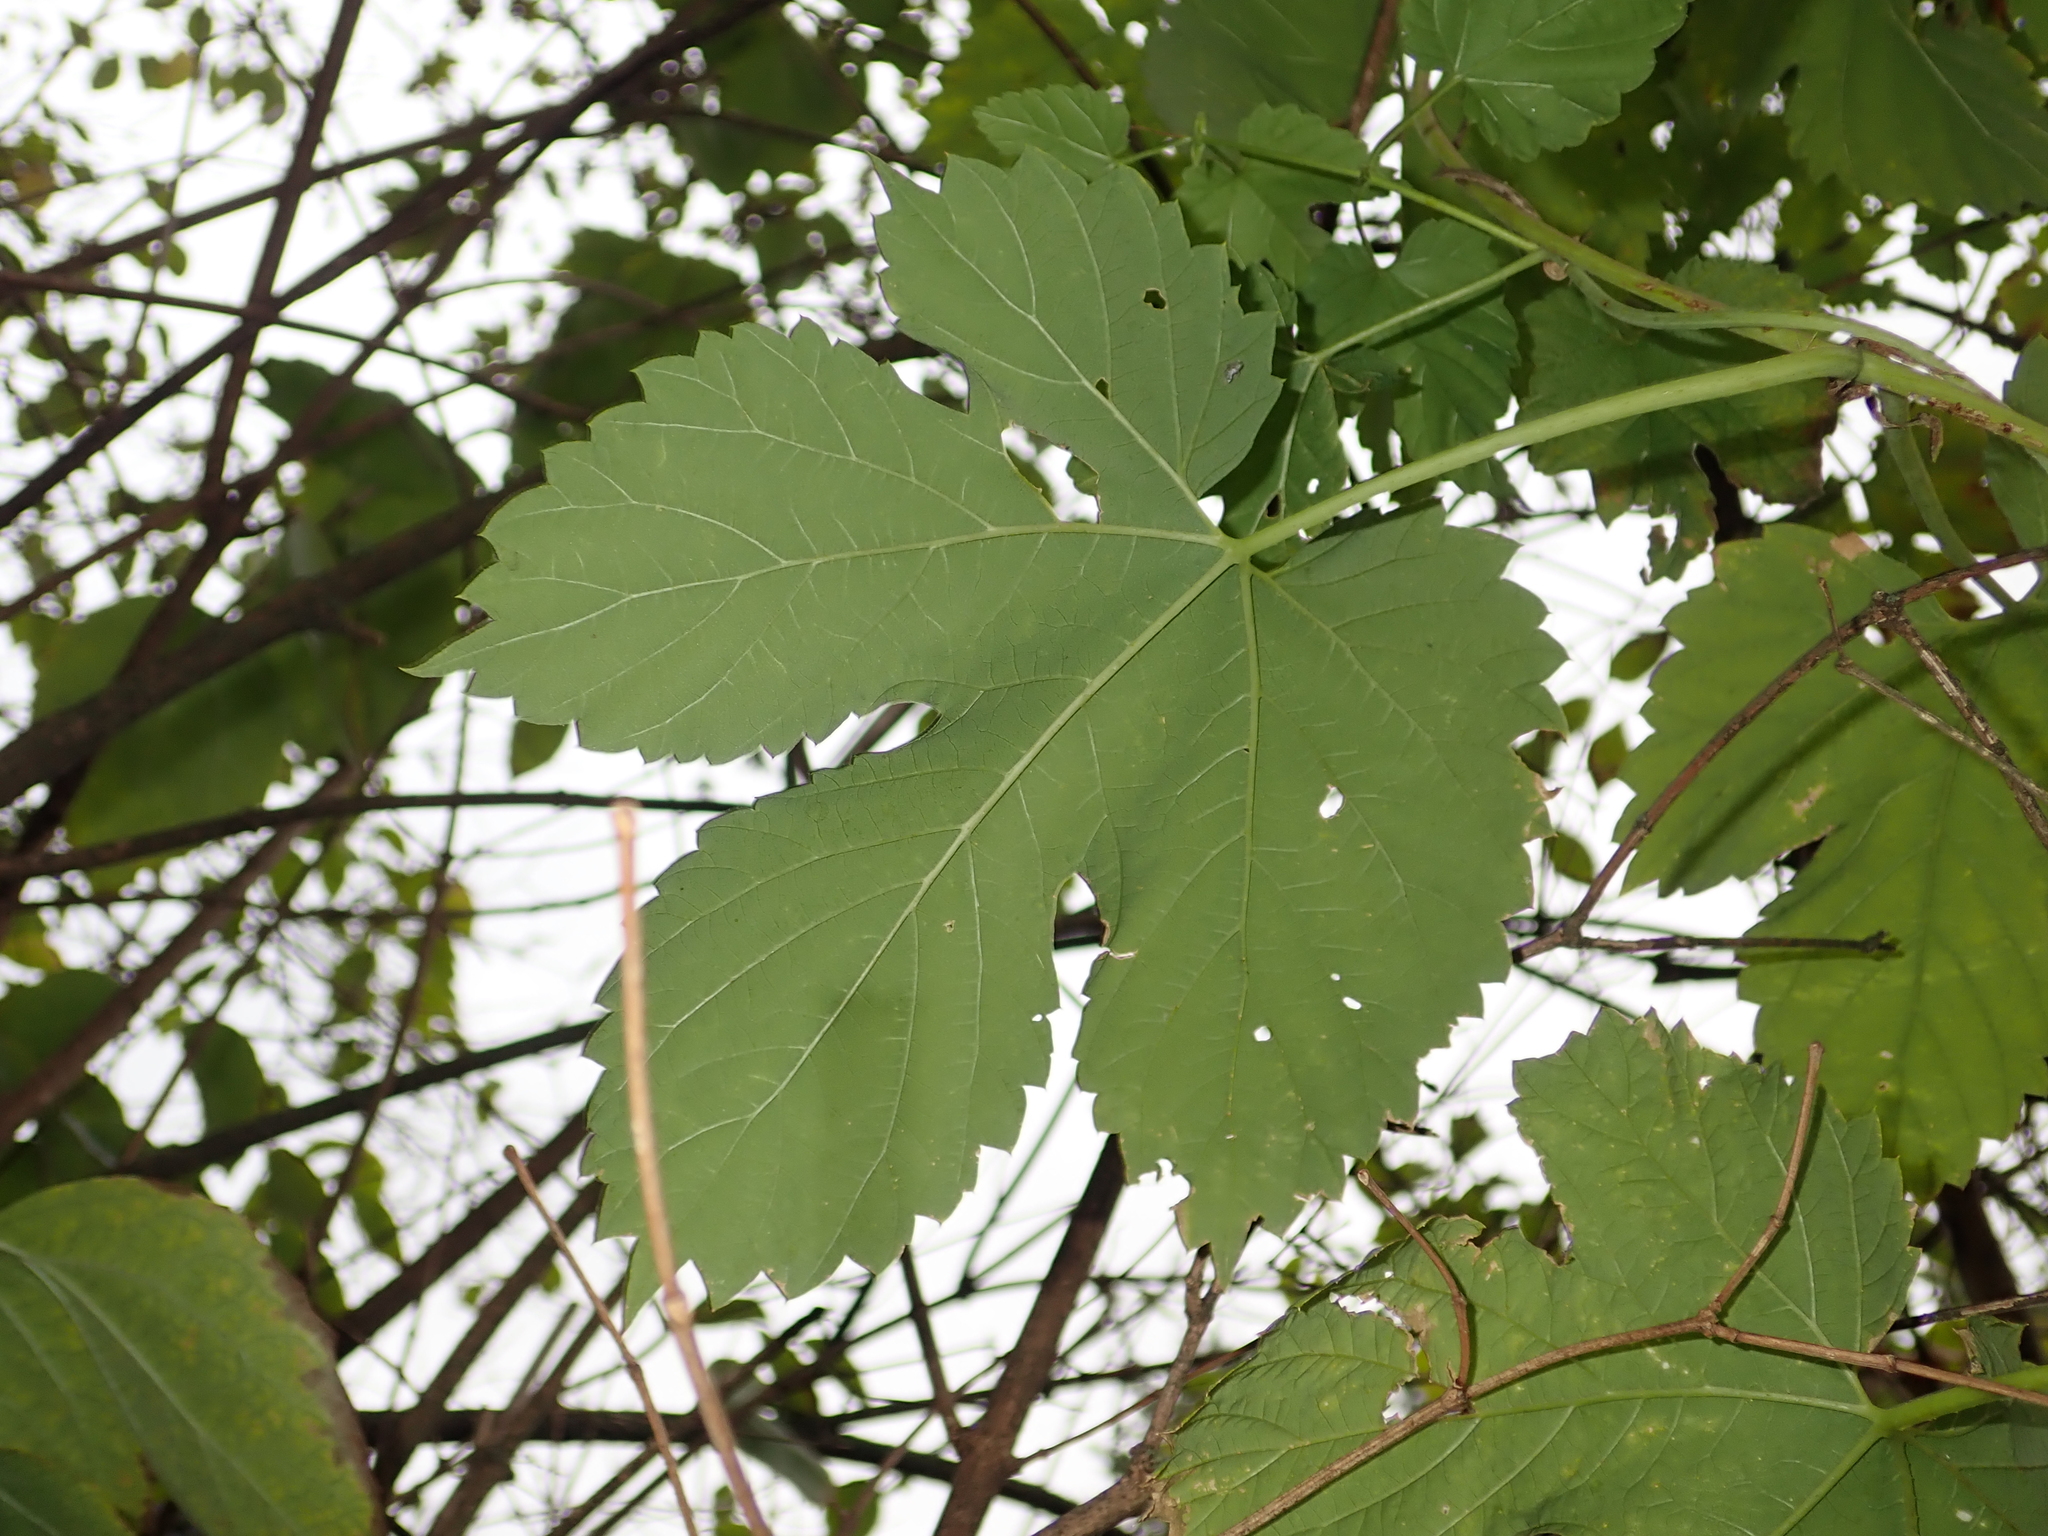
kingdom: Plantae
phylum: Tracheophyta
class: Magnoliopsida
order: Rosales
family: Cannabaceae
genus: Humulus
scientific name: Humulus lupulus
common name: Hop
